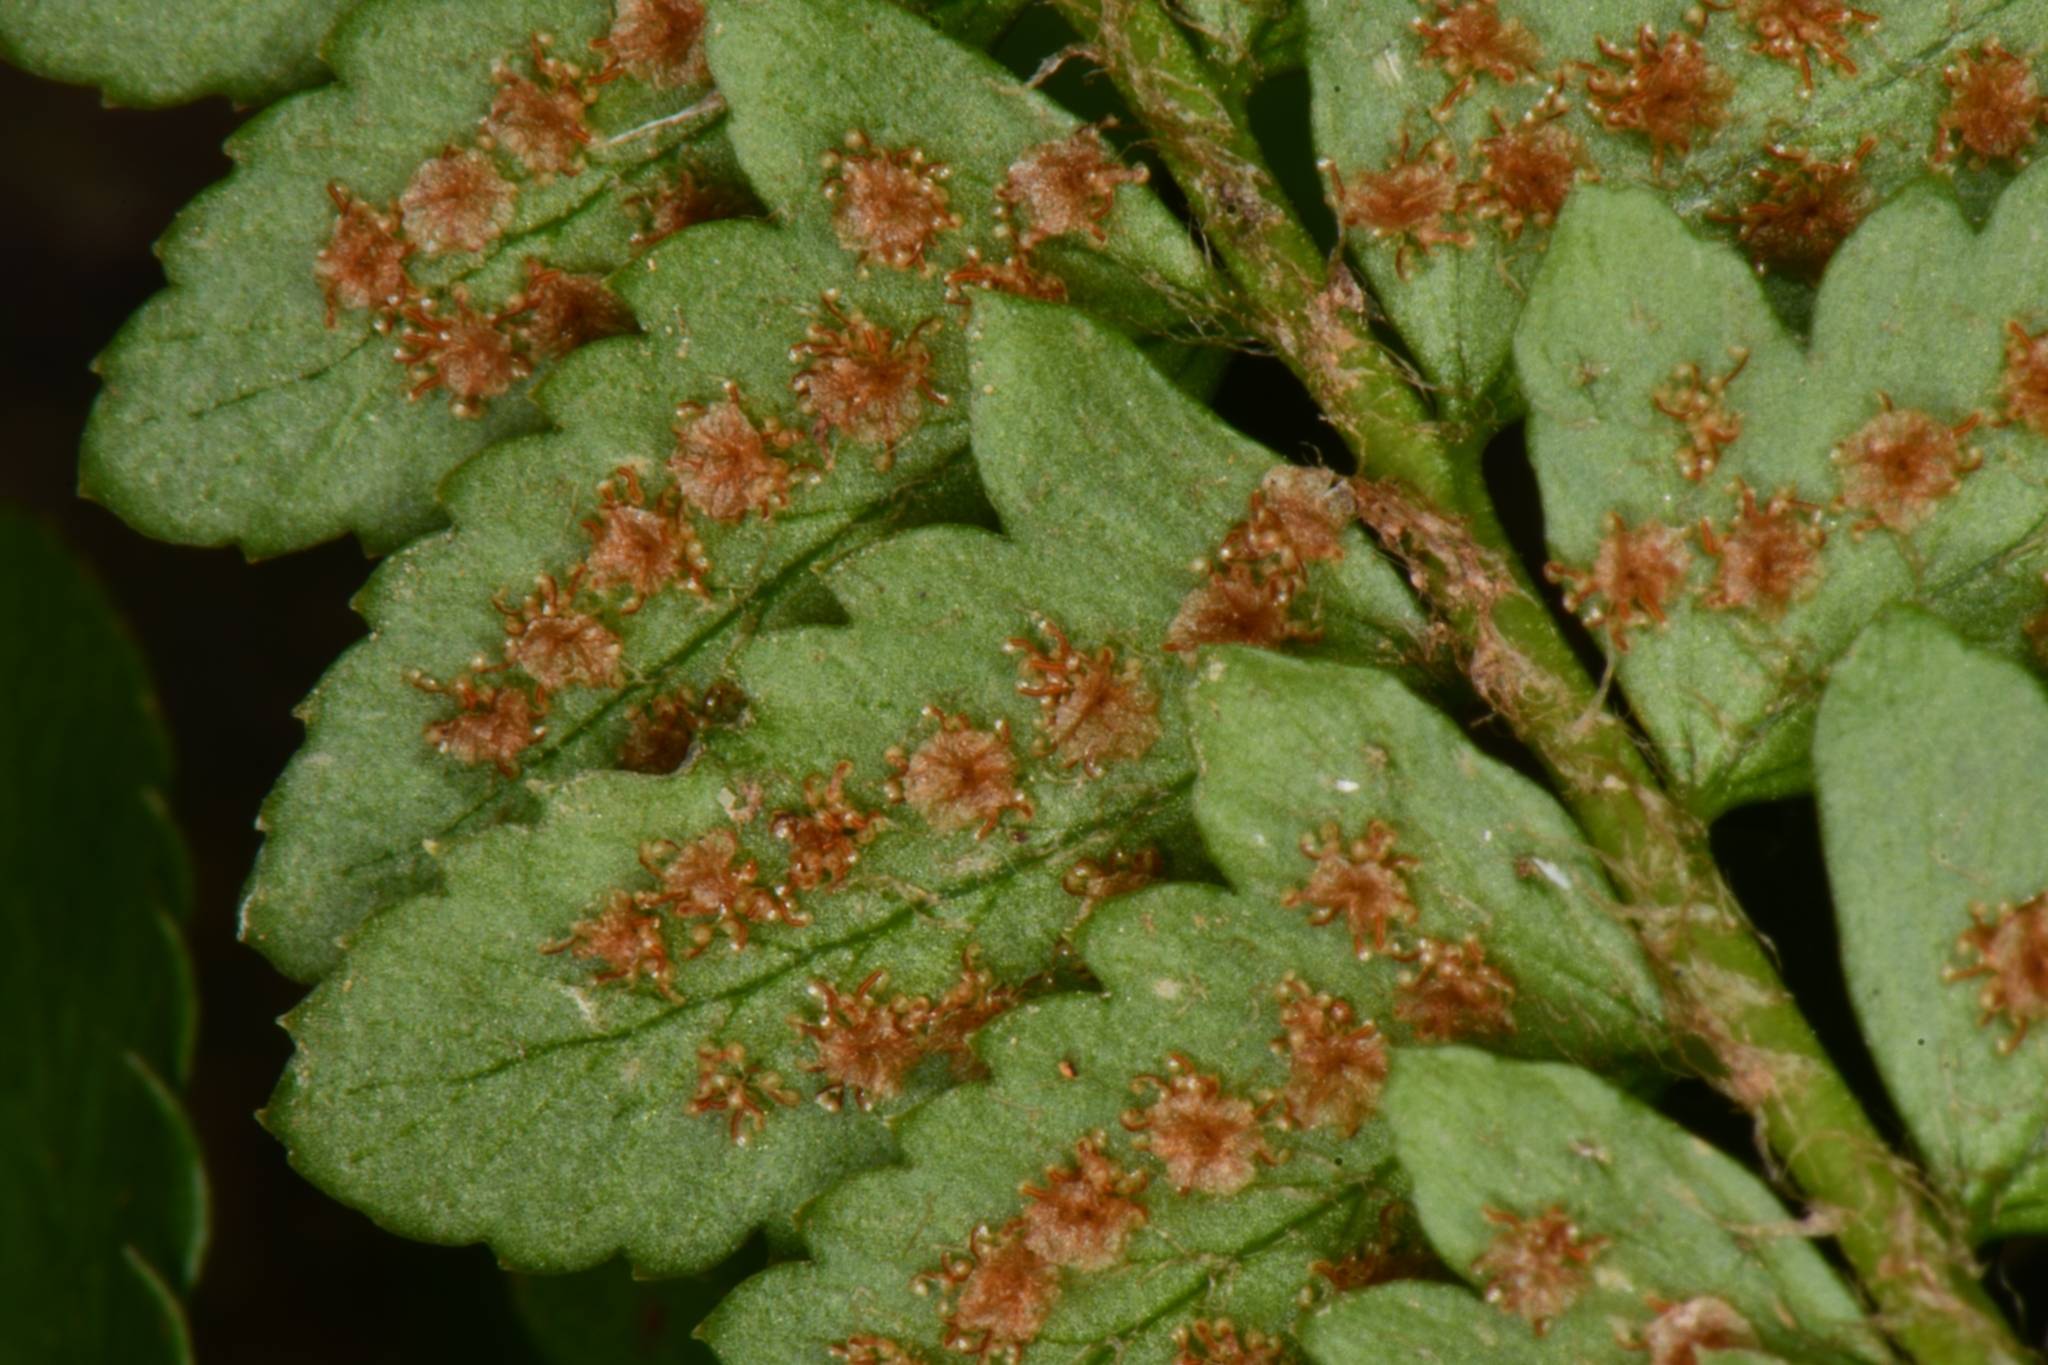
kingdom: Plantae
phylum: Tracheophyta
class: Polypodiopsida
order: Polypodiales
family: Dryopteridaceae
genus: Polystichum
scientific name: Polystichum scopulinum
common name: Eaton's shield fern
